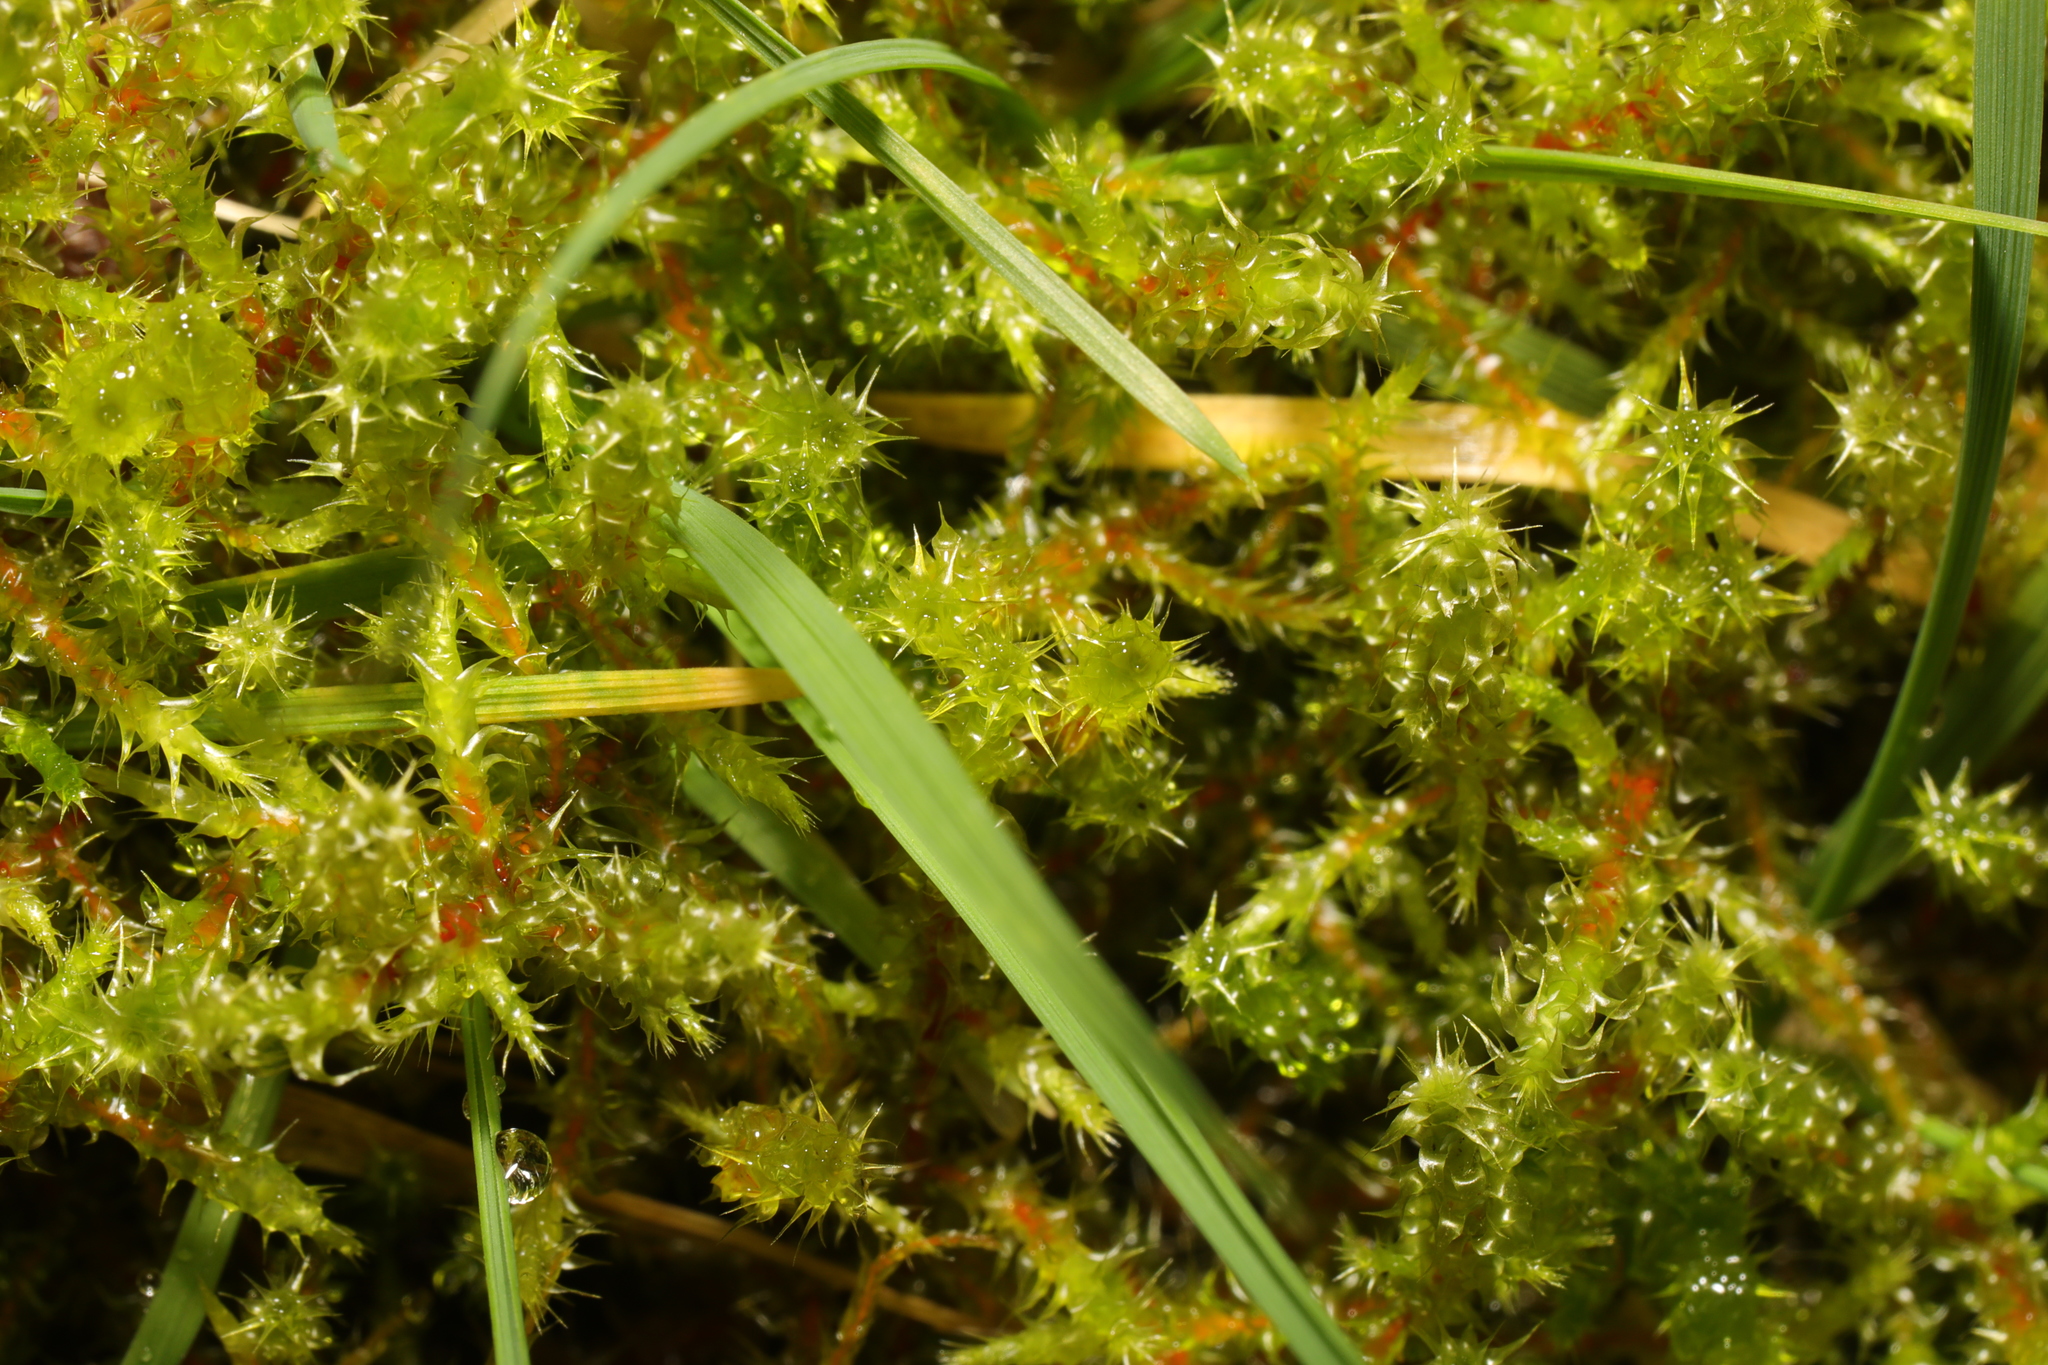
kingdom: Plantae
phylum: Bryophyta
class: Bryopsida
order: Hypnales
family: Hylocomiaceae
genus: Rhytidiadelphus
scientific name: Rhytidiadelphus squarrosus
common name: Springy turf-moss
